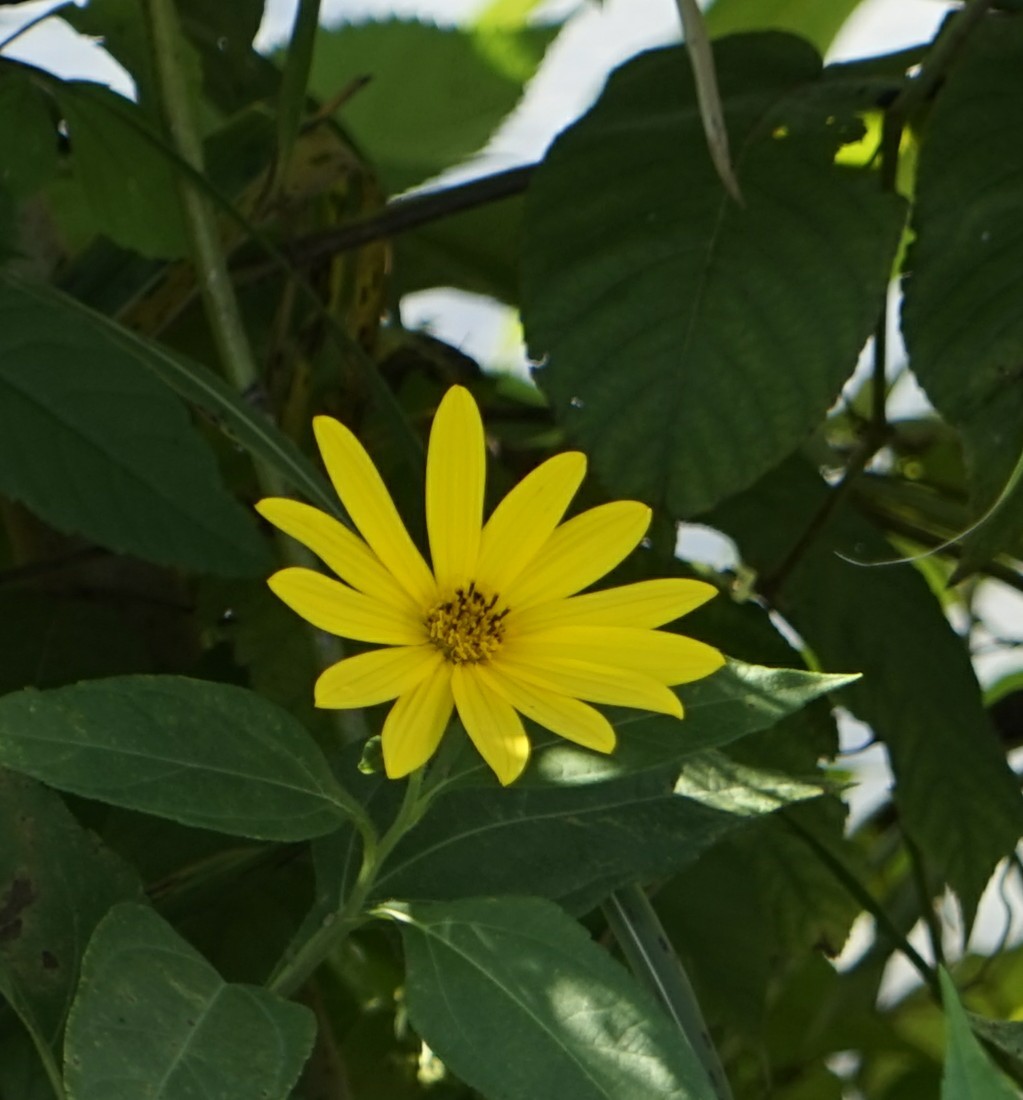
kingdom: Plantae
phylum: Tracheophyta
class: Magnoliopsida
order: Asterales
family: Asteraceae
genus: Helianthus
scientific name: Helianthus tuberosus
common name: Jerusalem artichoke
